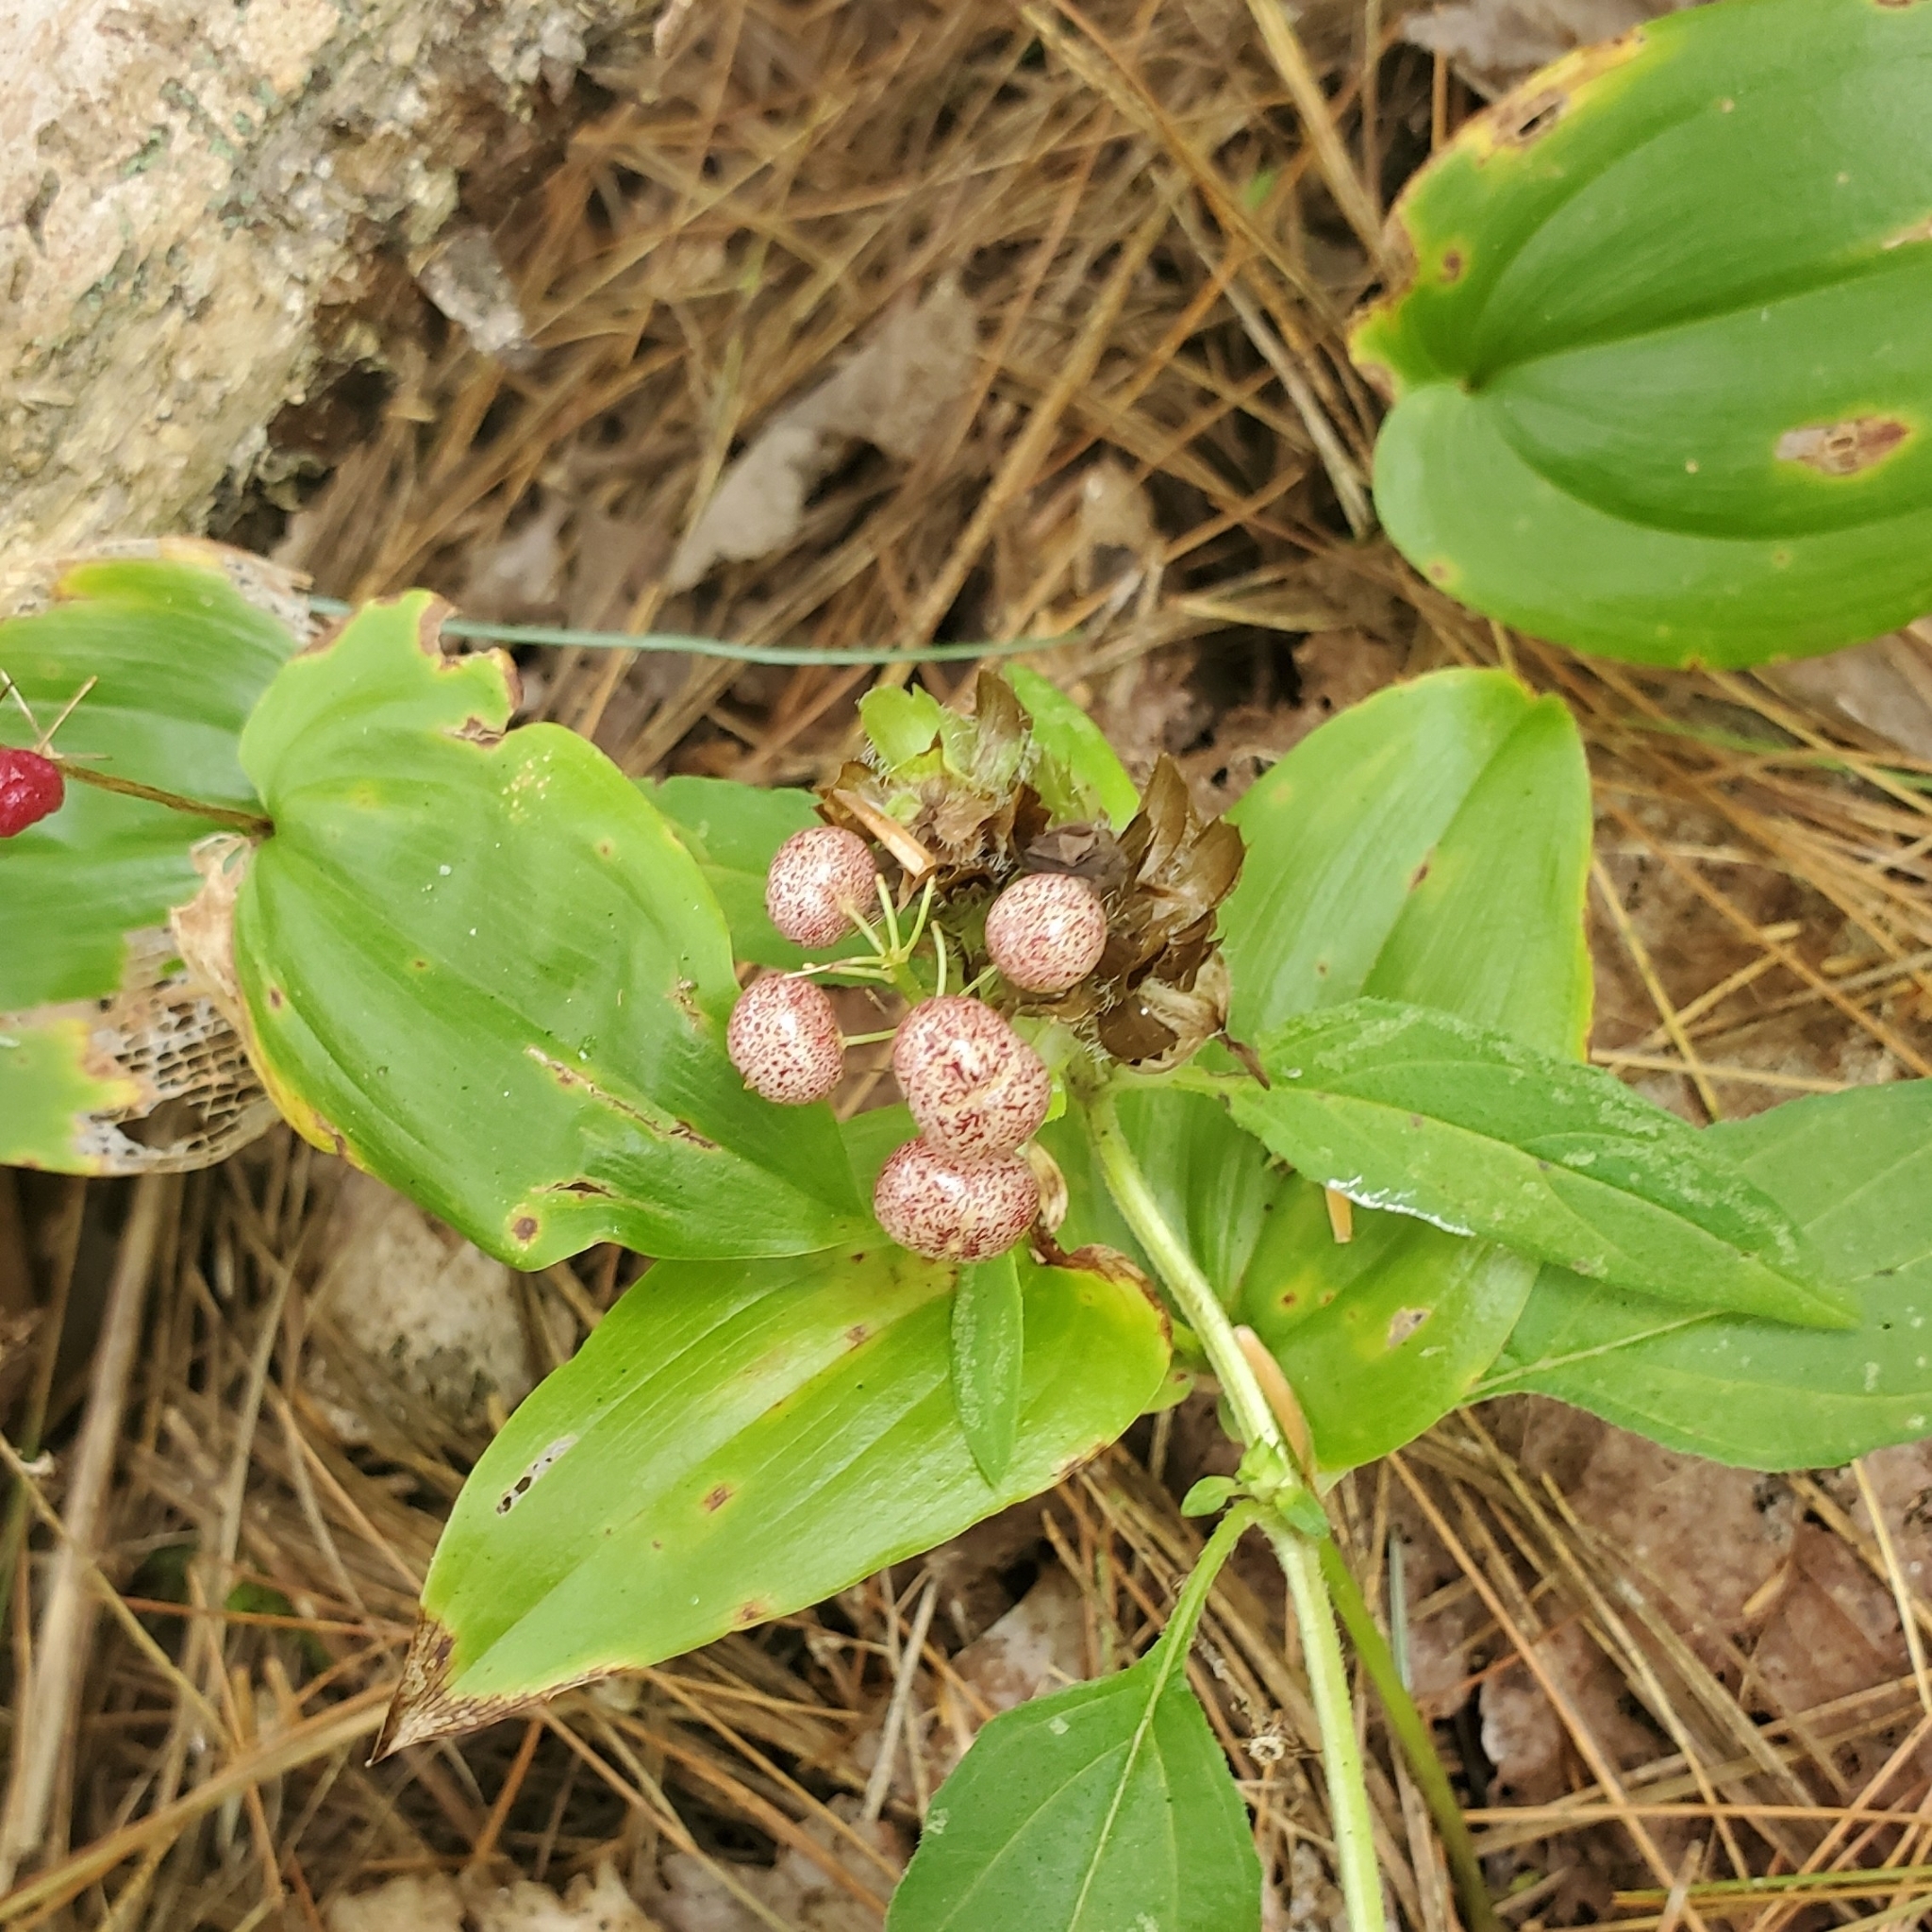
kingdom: Plantae
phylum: Tracheophyta
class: Liliopsida
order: Asparagales
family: Asparagaceae
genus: Maianthemum
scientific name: Maianthemum canadense
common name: False lily-of-the-valley
